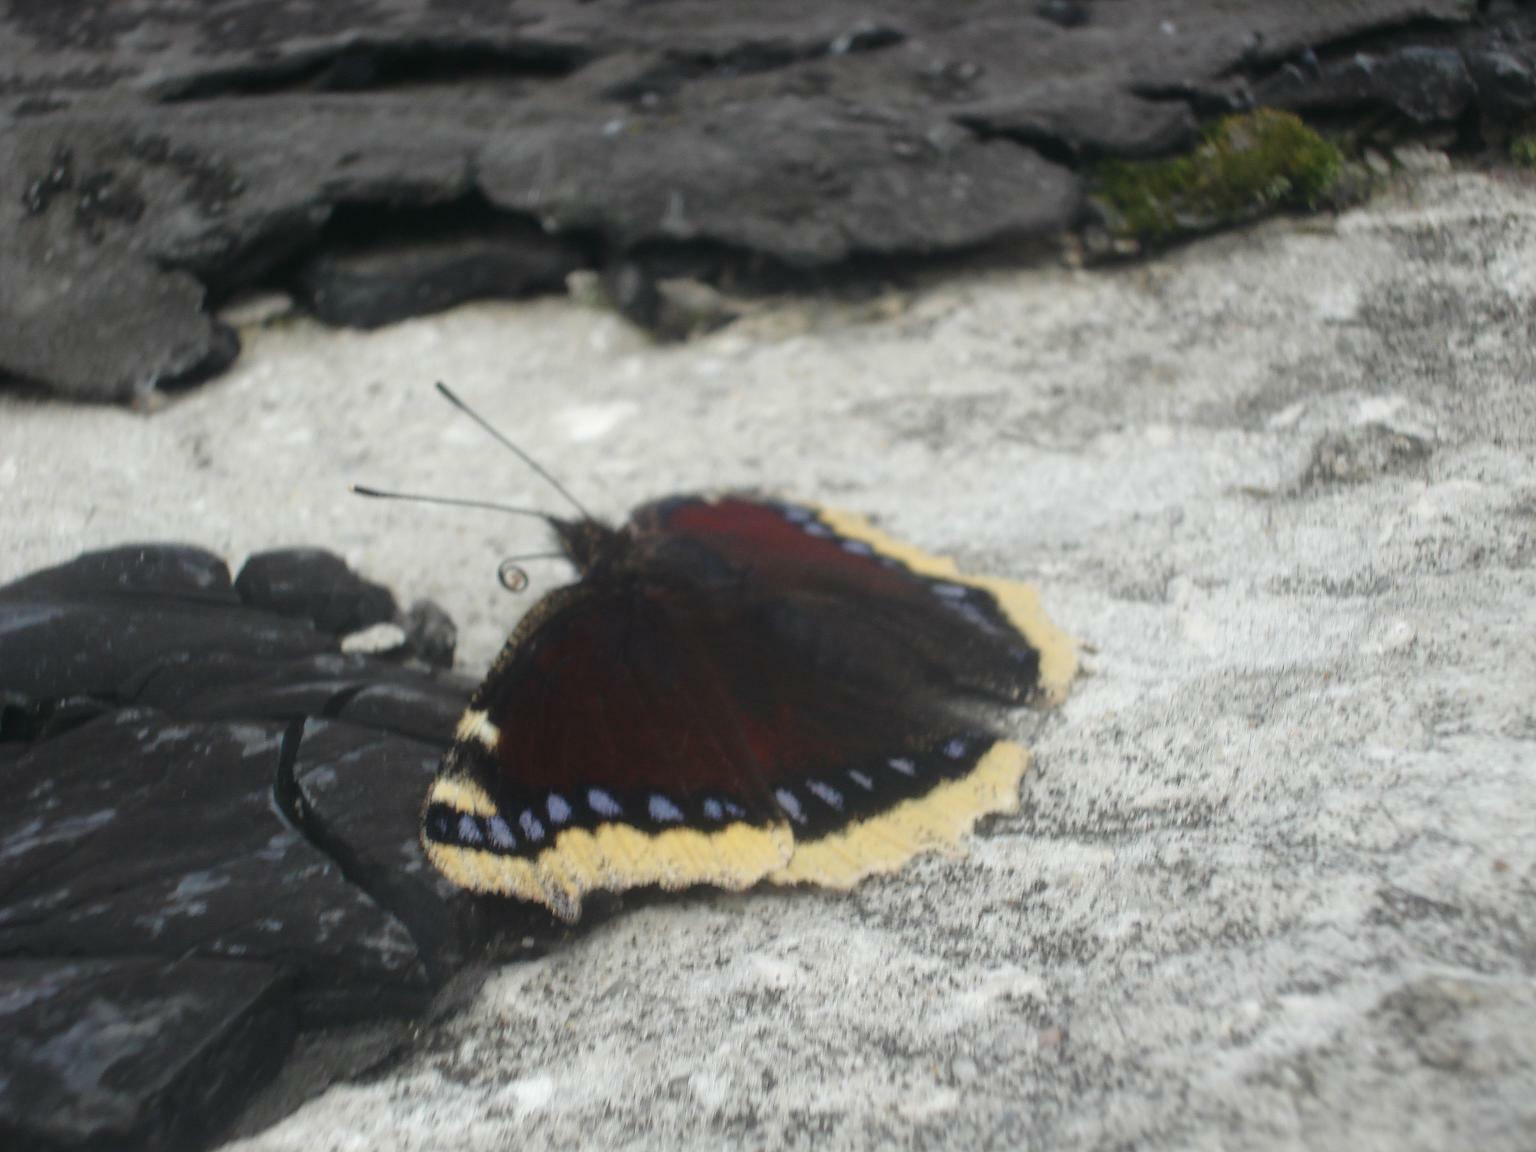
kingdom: Animalia
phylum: Arthropoda
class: Insecta
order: Lepidoptera
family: Nymphalidae
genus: Nymphalis
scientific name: Nymphalis antiopa
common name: Camberwell beauty
